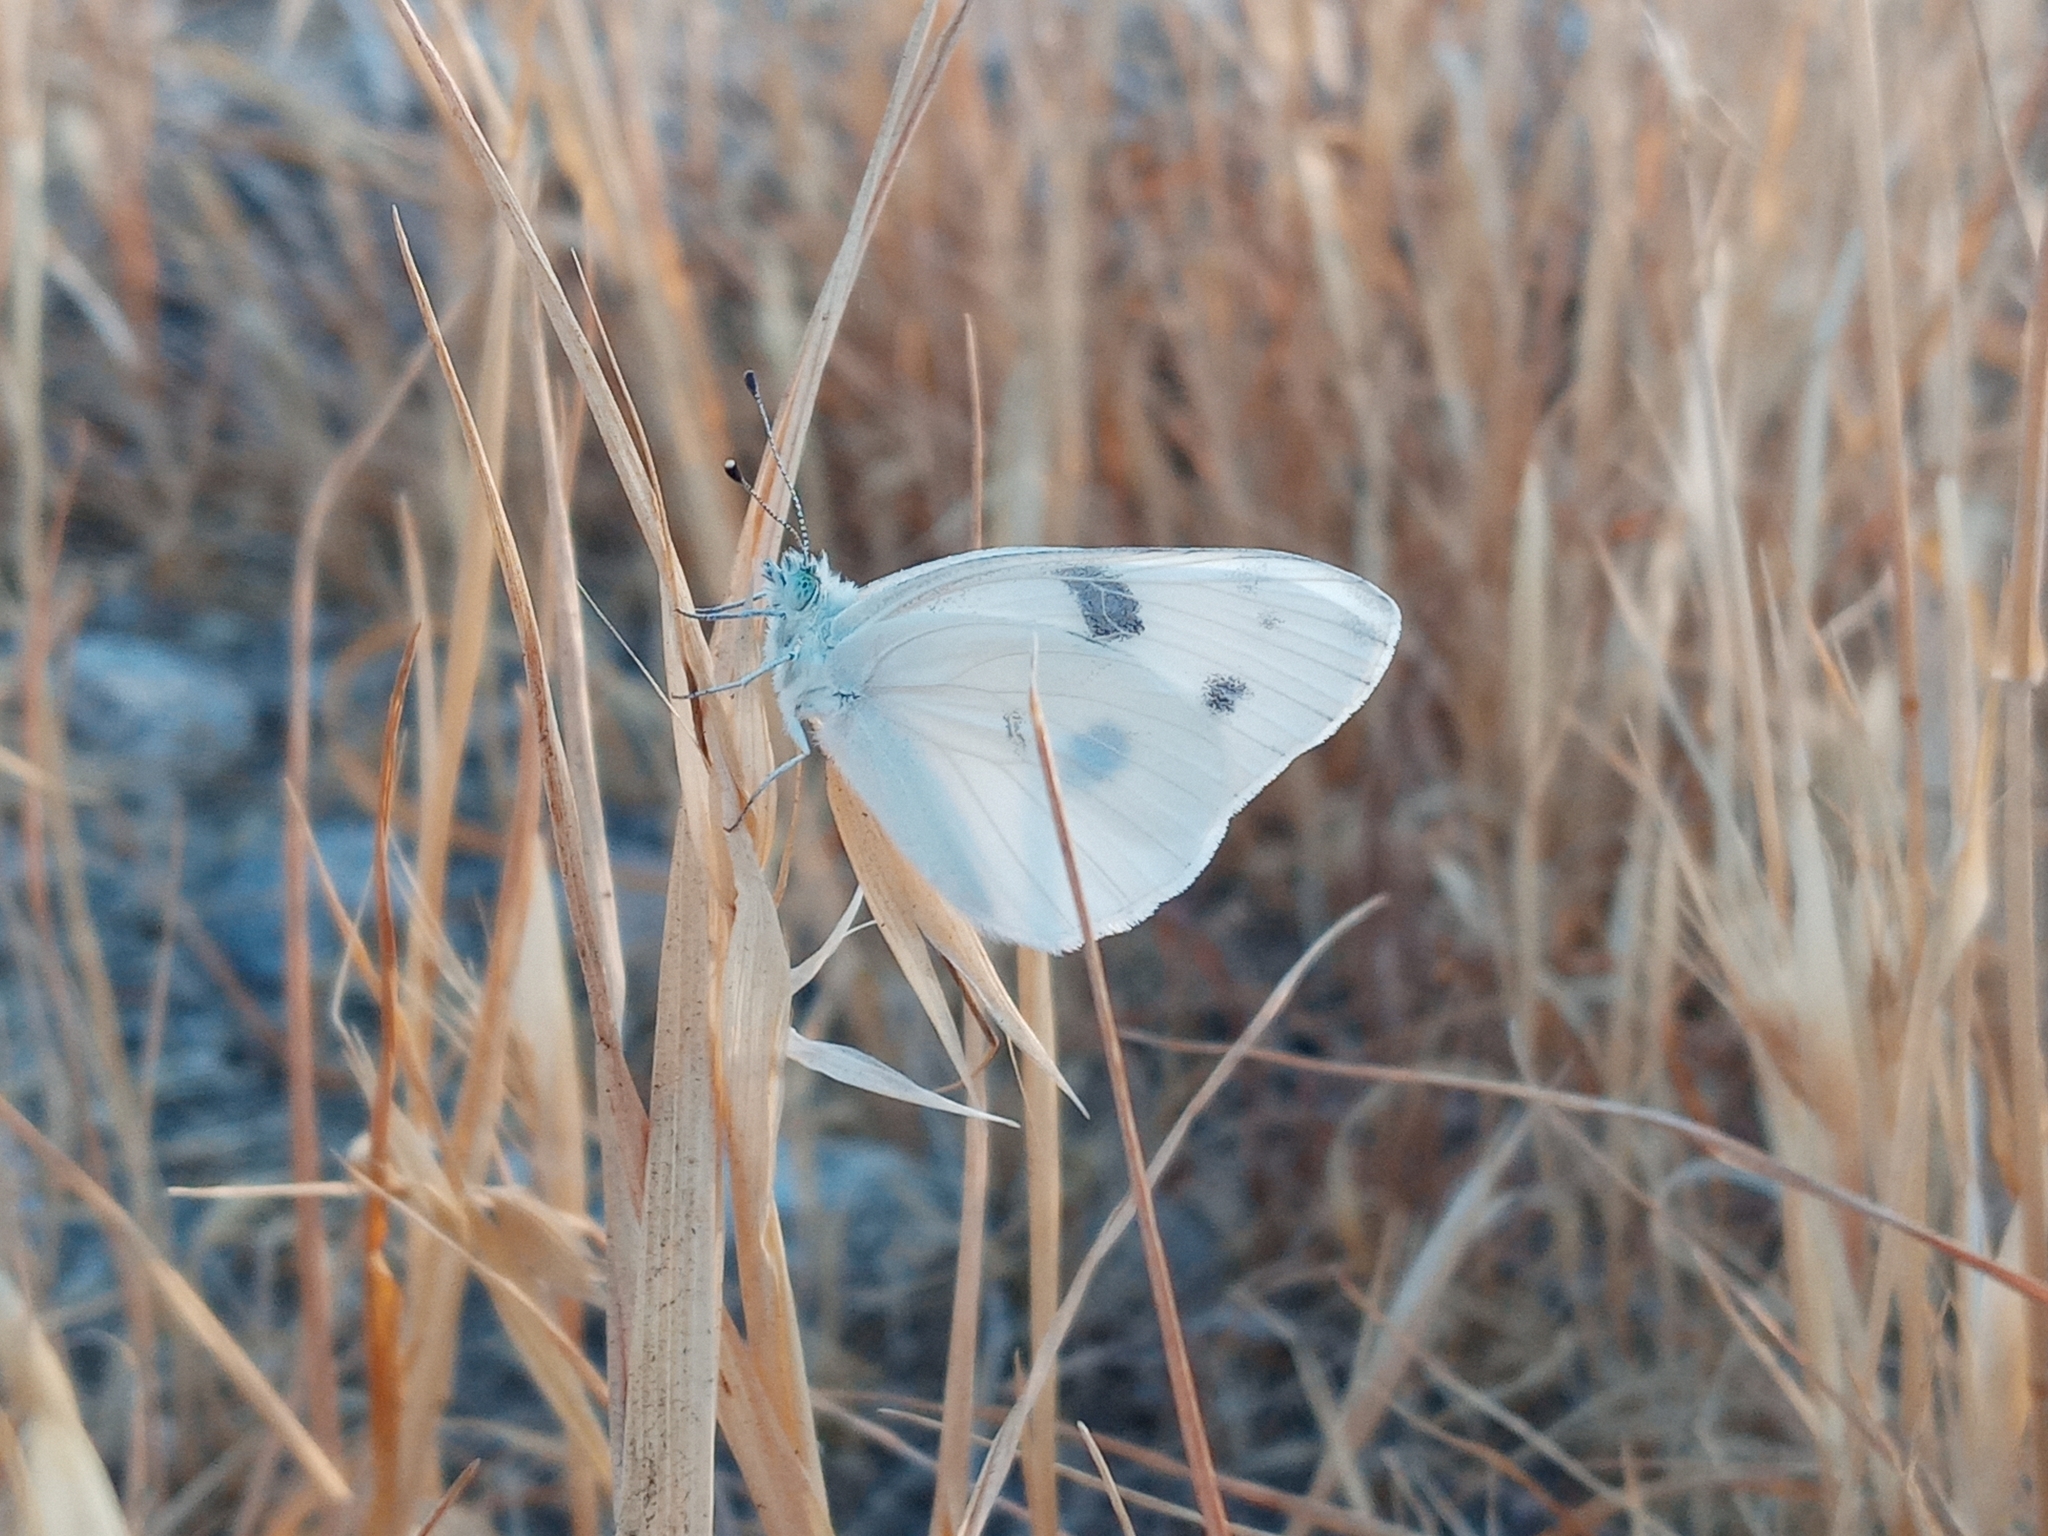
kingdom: Animalia
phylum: Arthropoda
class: Insecta
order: Lepidoptera
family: Pieridae
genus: Pontia
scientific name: Pontia protodice
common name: Checkered white
